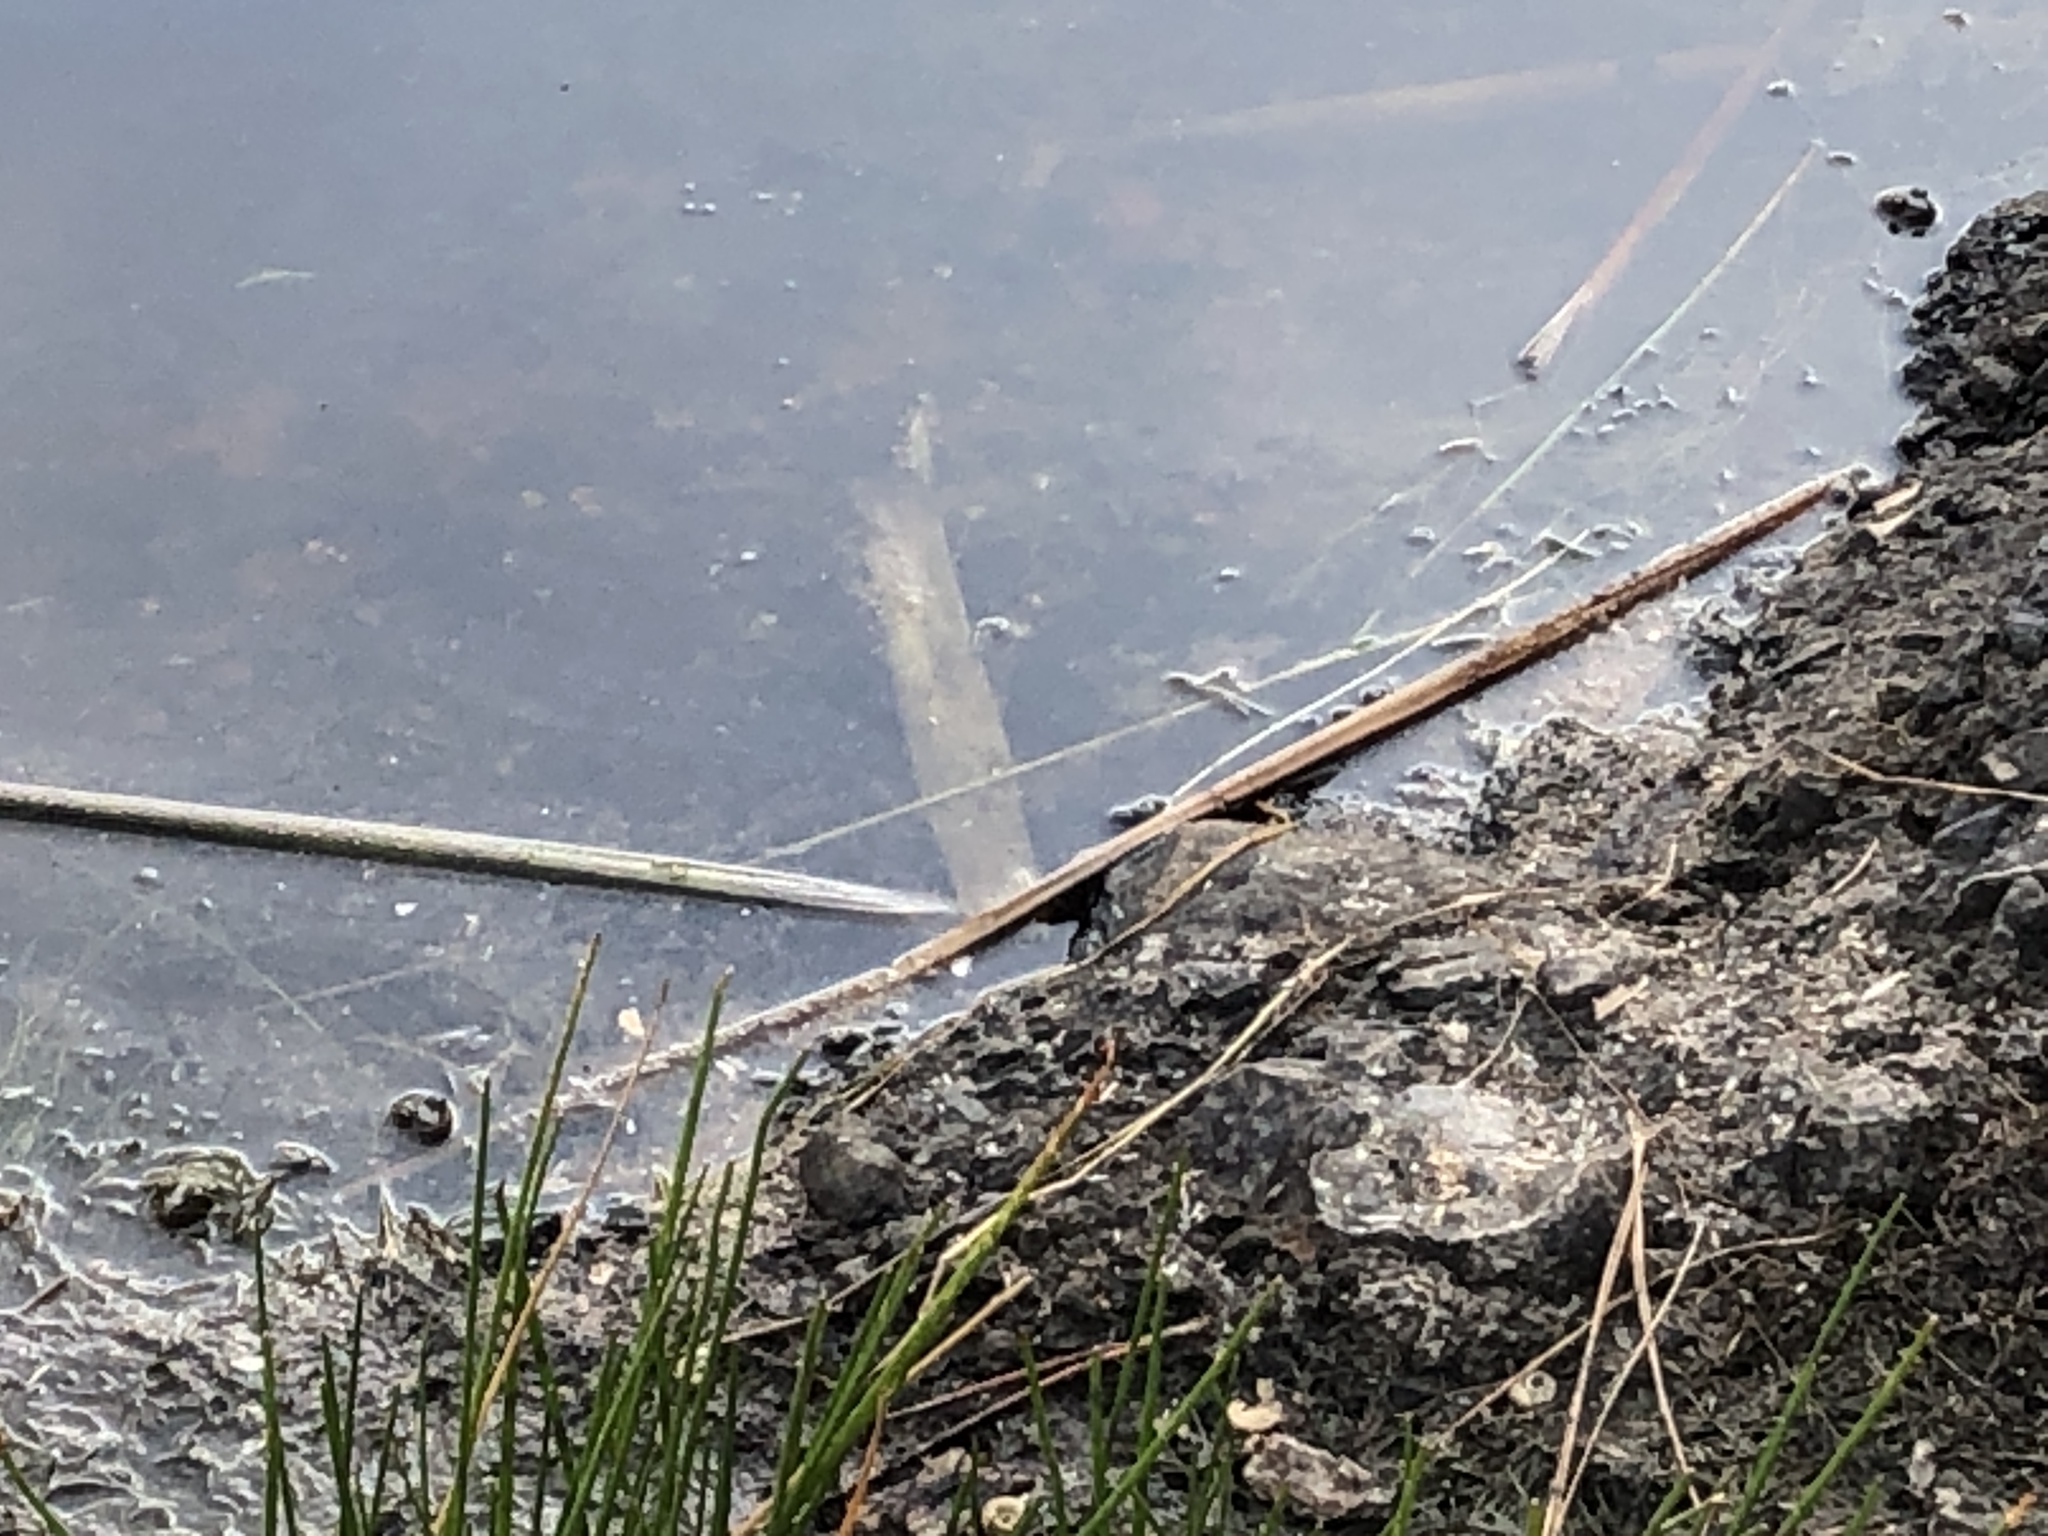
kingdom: Animalia
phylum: Chordata
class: Amphibia
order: Anura
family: Ranidae
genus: Rana
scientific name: Rana draytonii
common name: California red-legged frog
